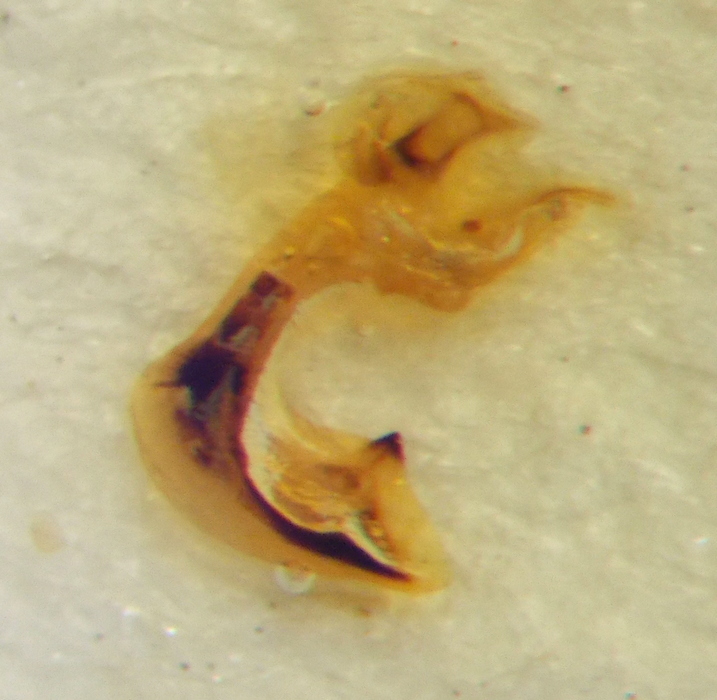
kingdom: Animalia
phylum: Arthropoda
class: Insecta
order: Hemiptera
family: Pentatomidae
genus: Carpocoris
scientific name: Carpocoris purpureipennis
